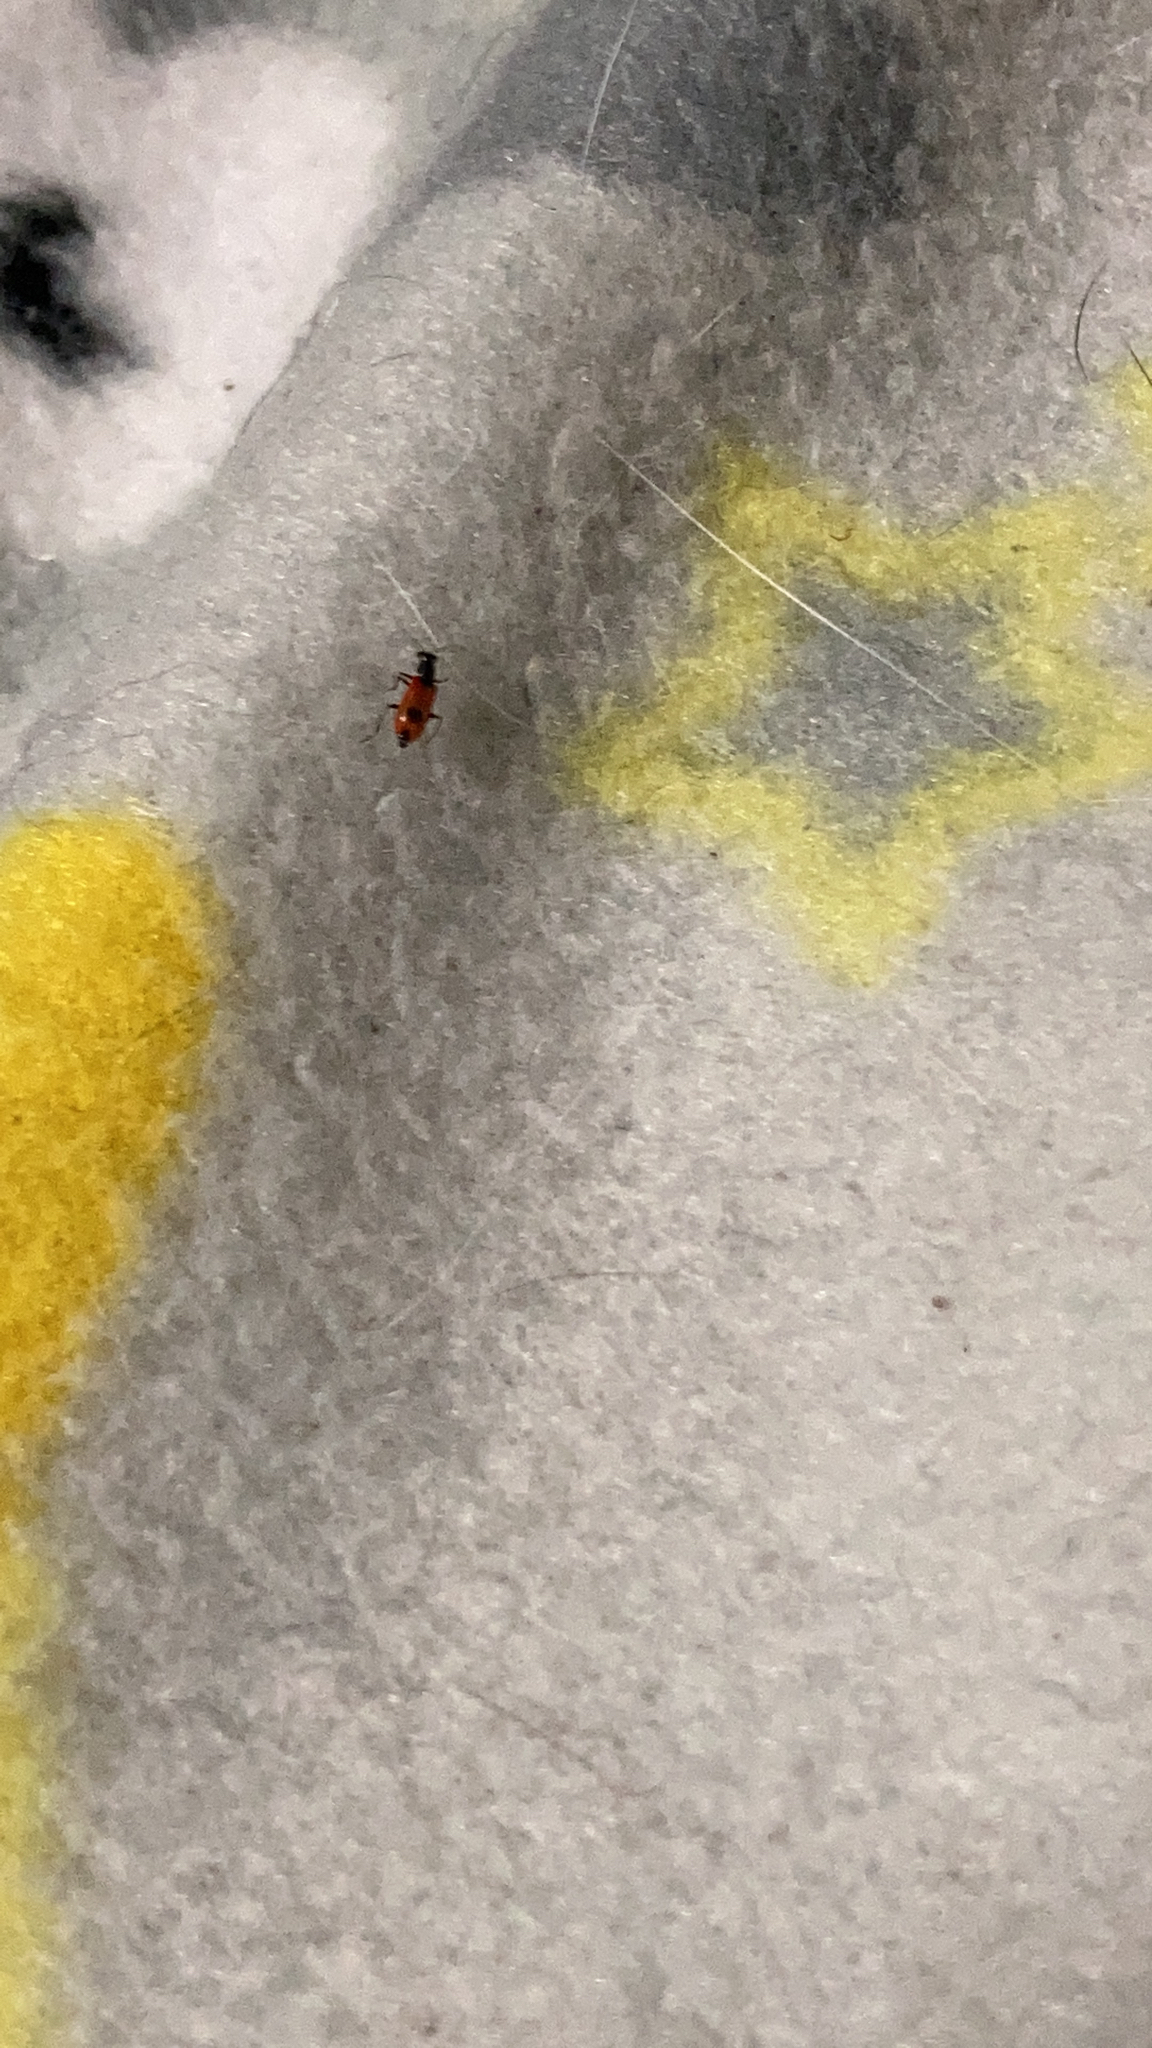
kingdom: Animalia
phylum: Arthropoda
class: Insecta
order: Coleoptera
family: Melyridae
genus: Anthocomus
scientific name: Anthocomus equestris
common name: Black-banded soft-winged flower beetle
